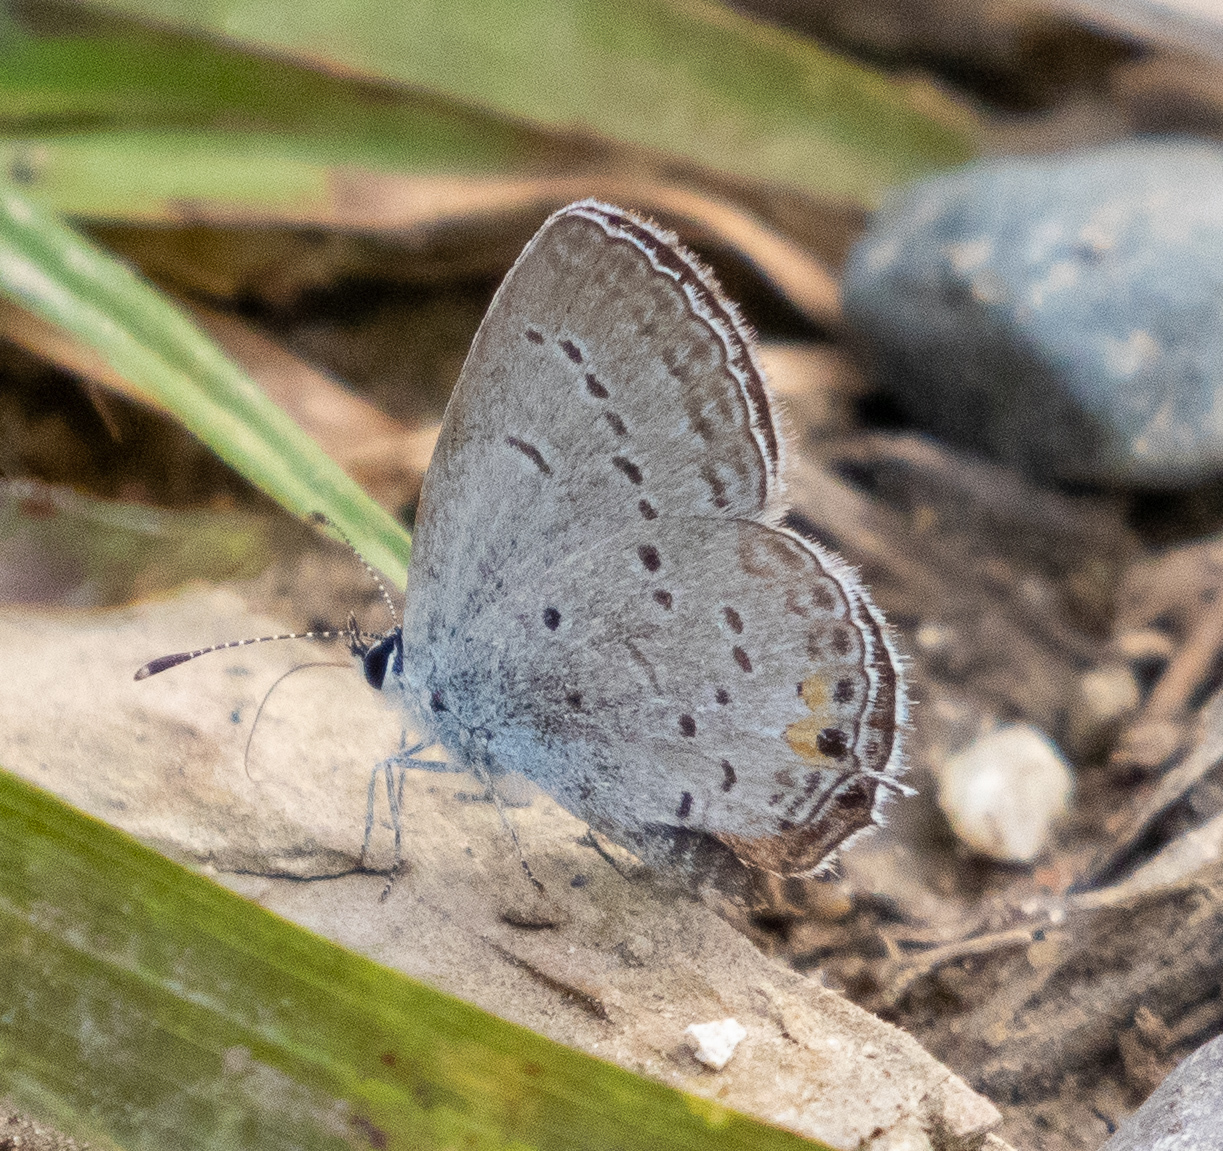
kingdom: Animalia
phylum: Arthropoda
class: Insecta
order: Lepidoptera
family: Lycaenidae
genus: Elkalyce
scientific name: Elkalyce comyntas
